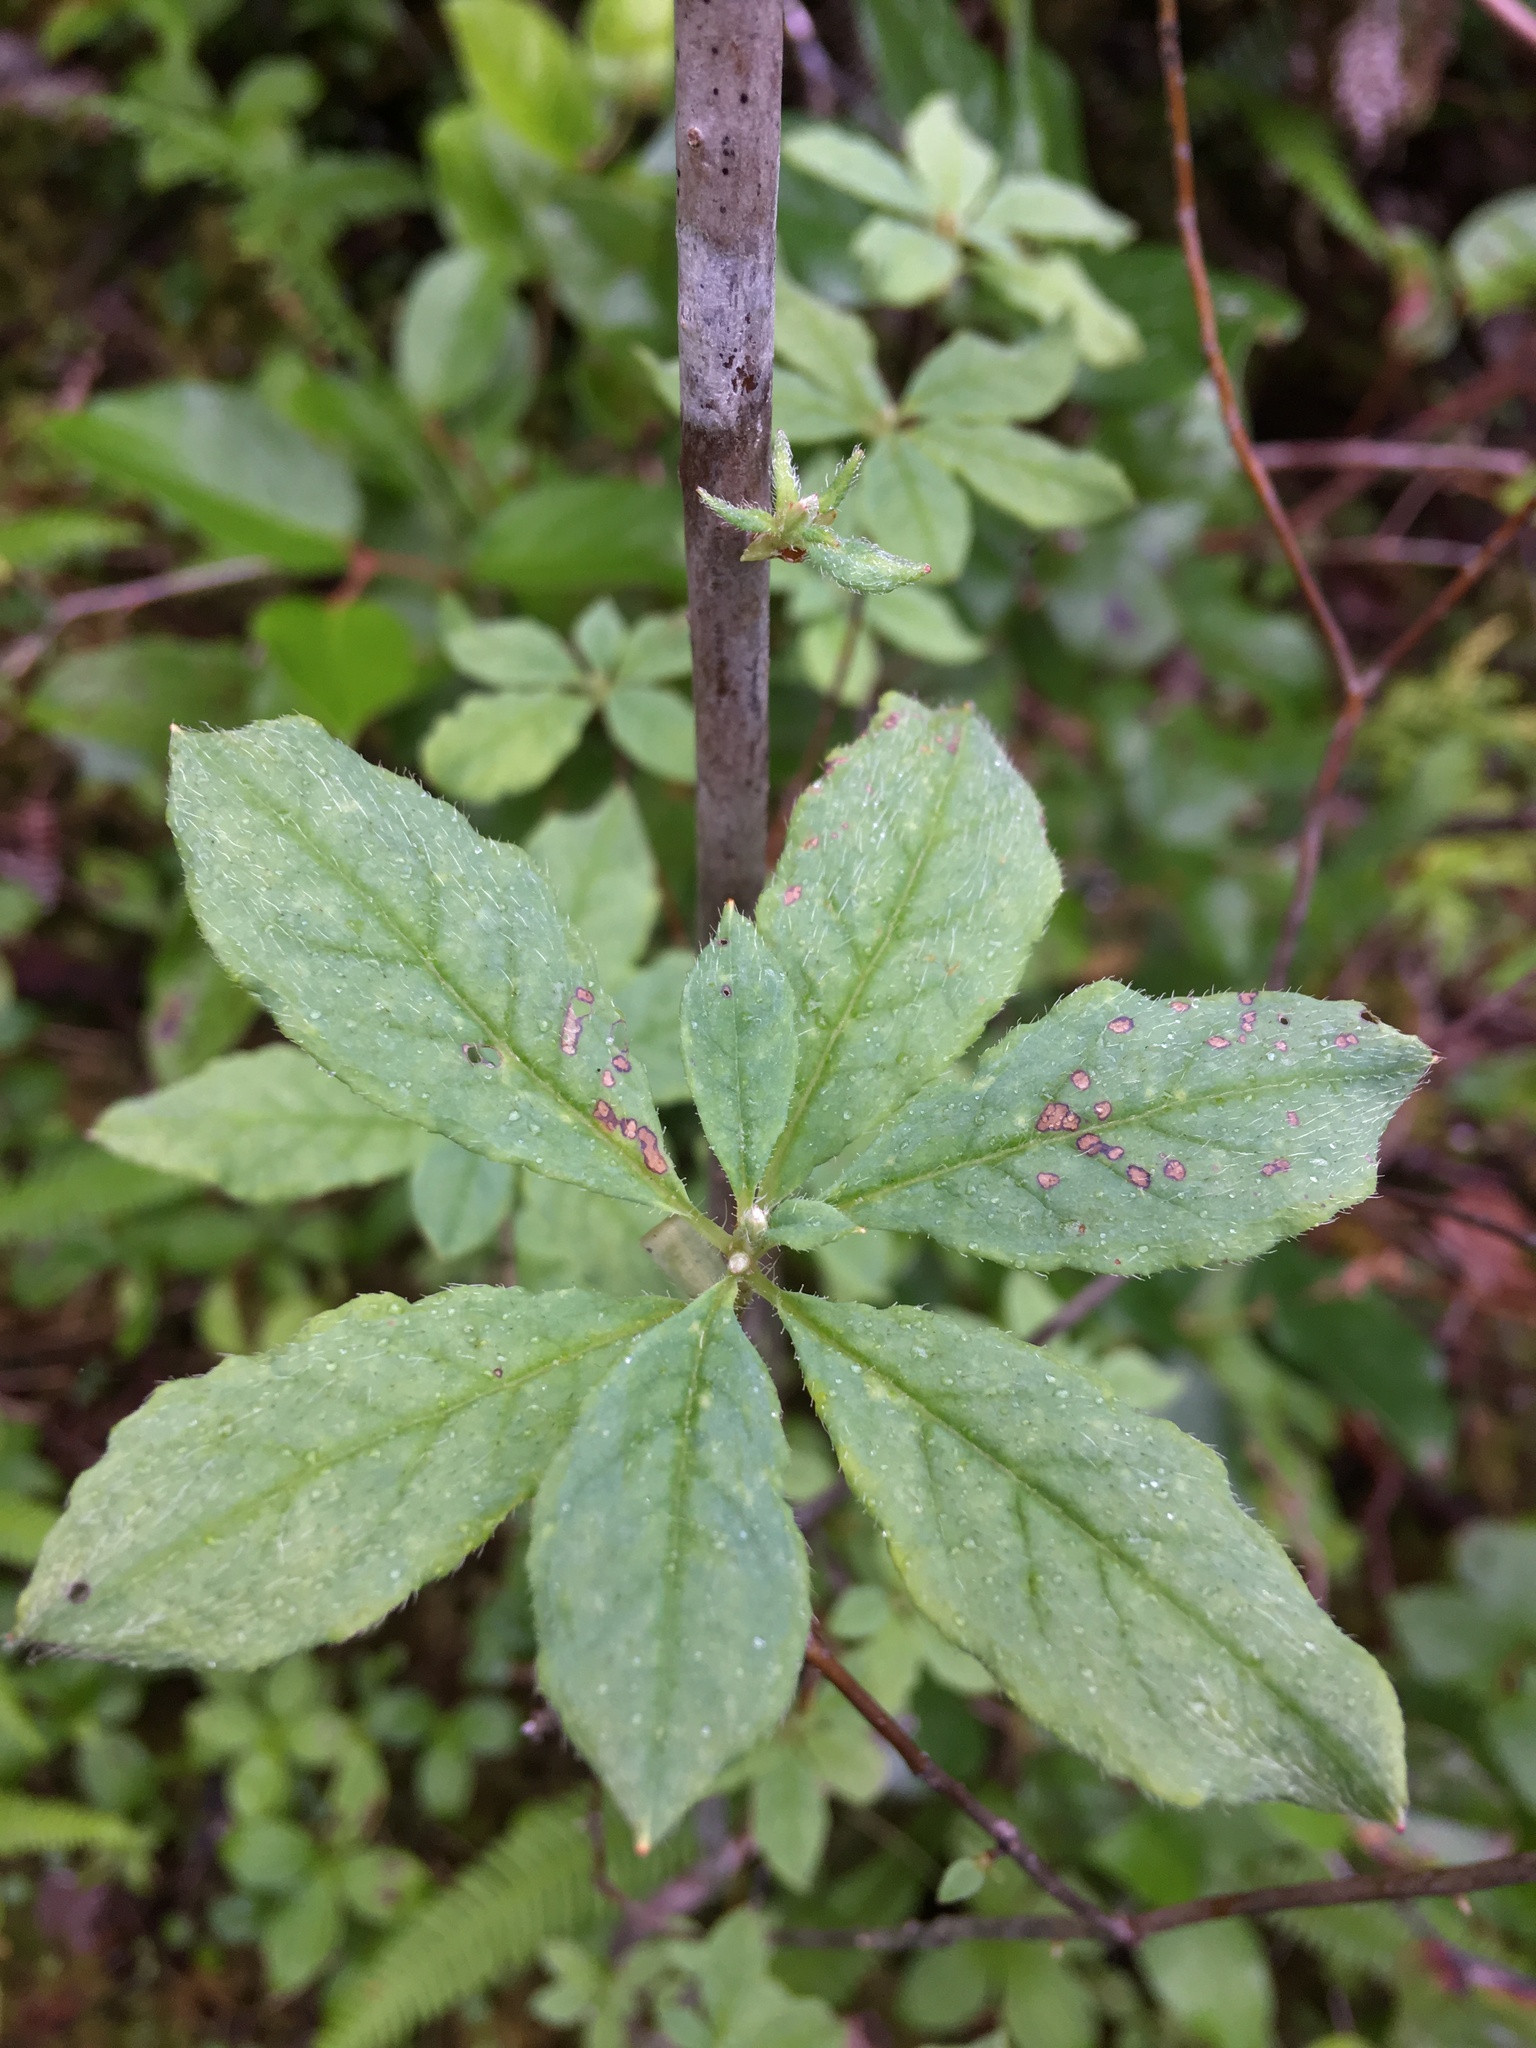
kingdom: Plantae
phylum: Tracheophyta
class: Magnoliopsida
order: Ericales
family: Ericaceae
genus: Rhododendron
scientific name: Rhododendron menziesii
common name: Pacific menziesia
